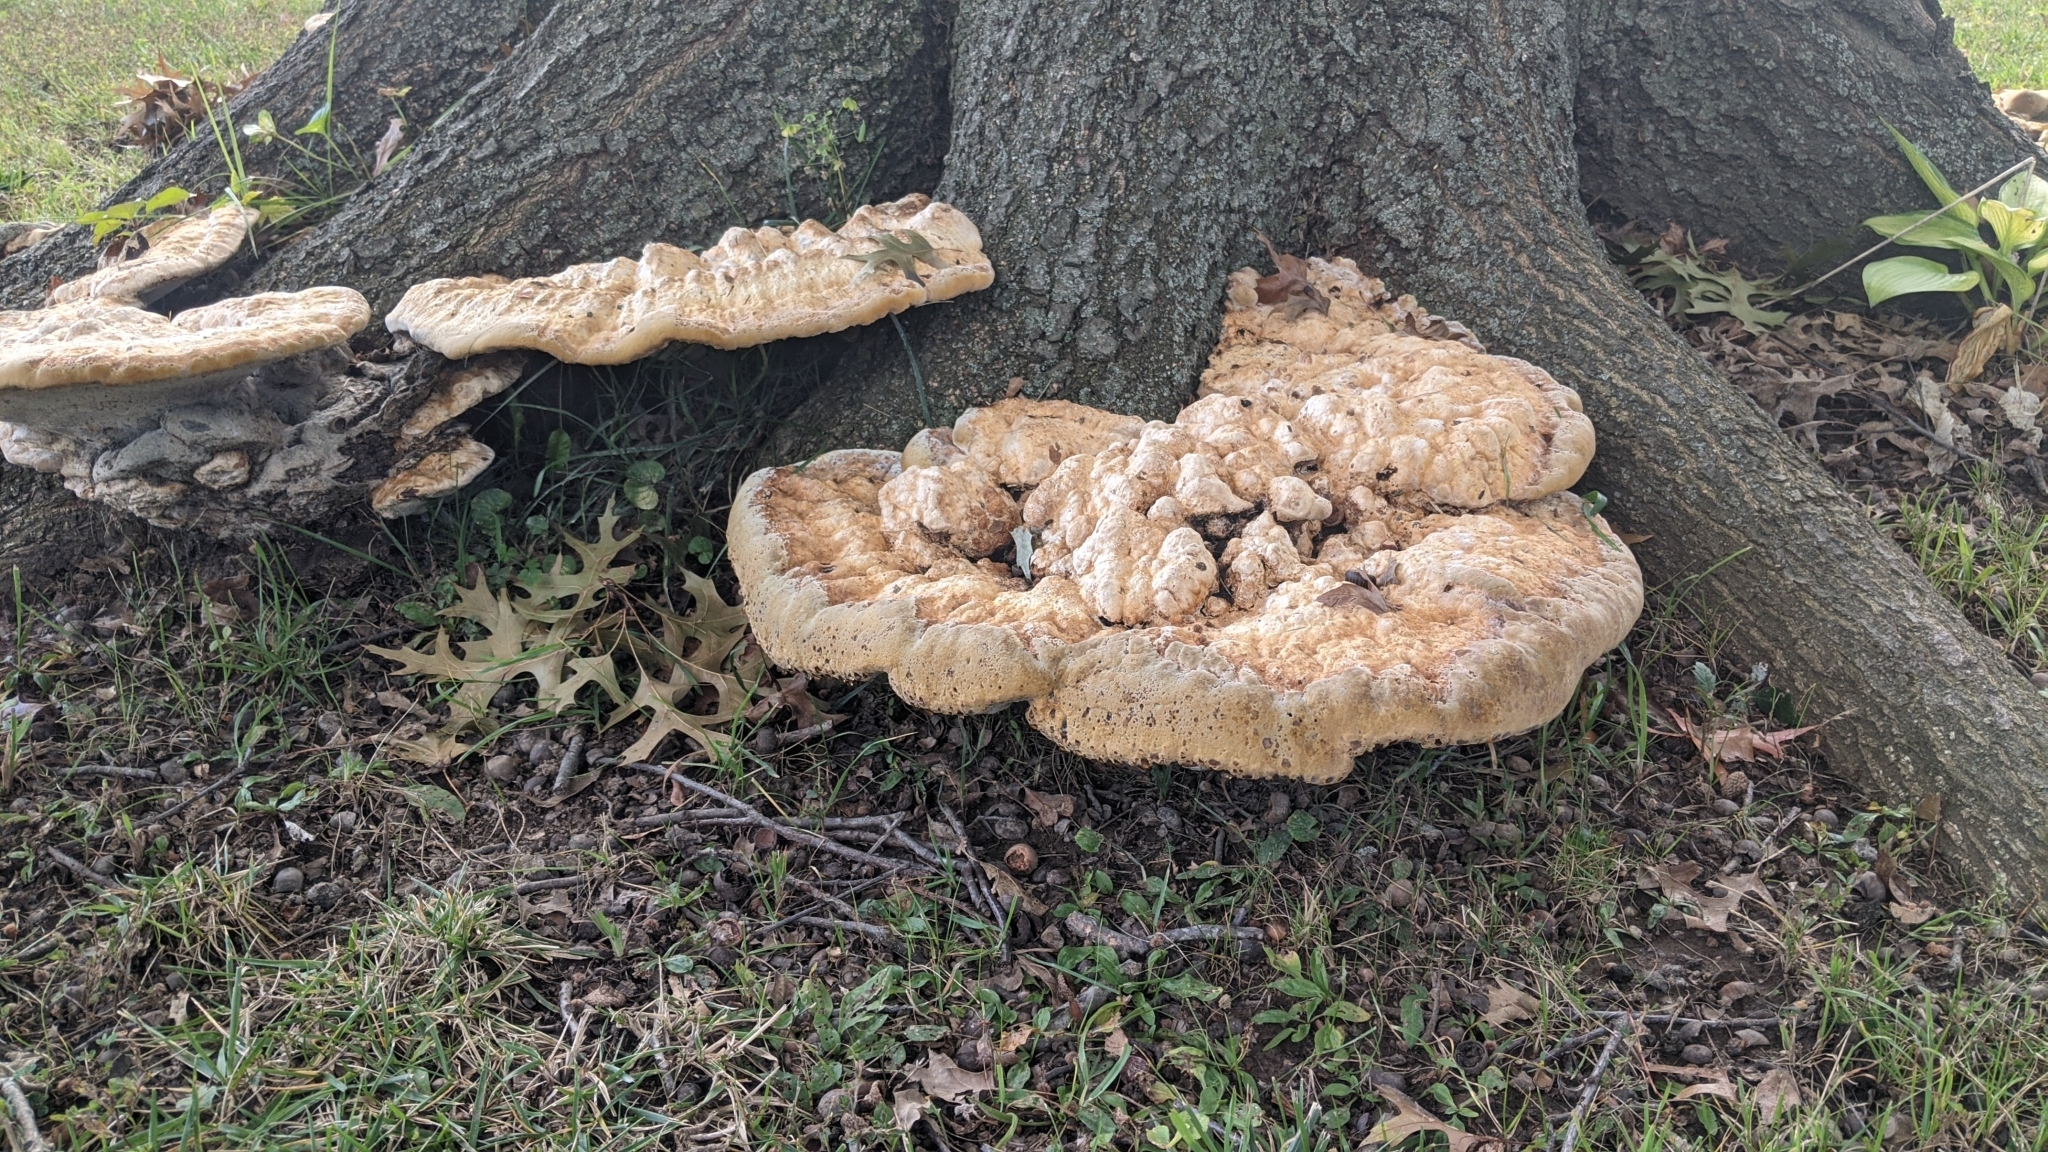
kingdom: Fungi
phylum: Basidiomycota
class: Agaricomycetes
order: Hymenochaetales
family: Hymenochaetaceae
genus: Pseudoinonotus
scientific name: Pseudoinonotus dryadeus
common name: Oak bracket
